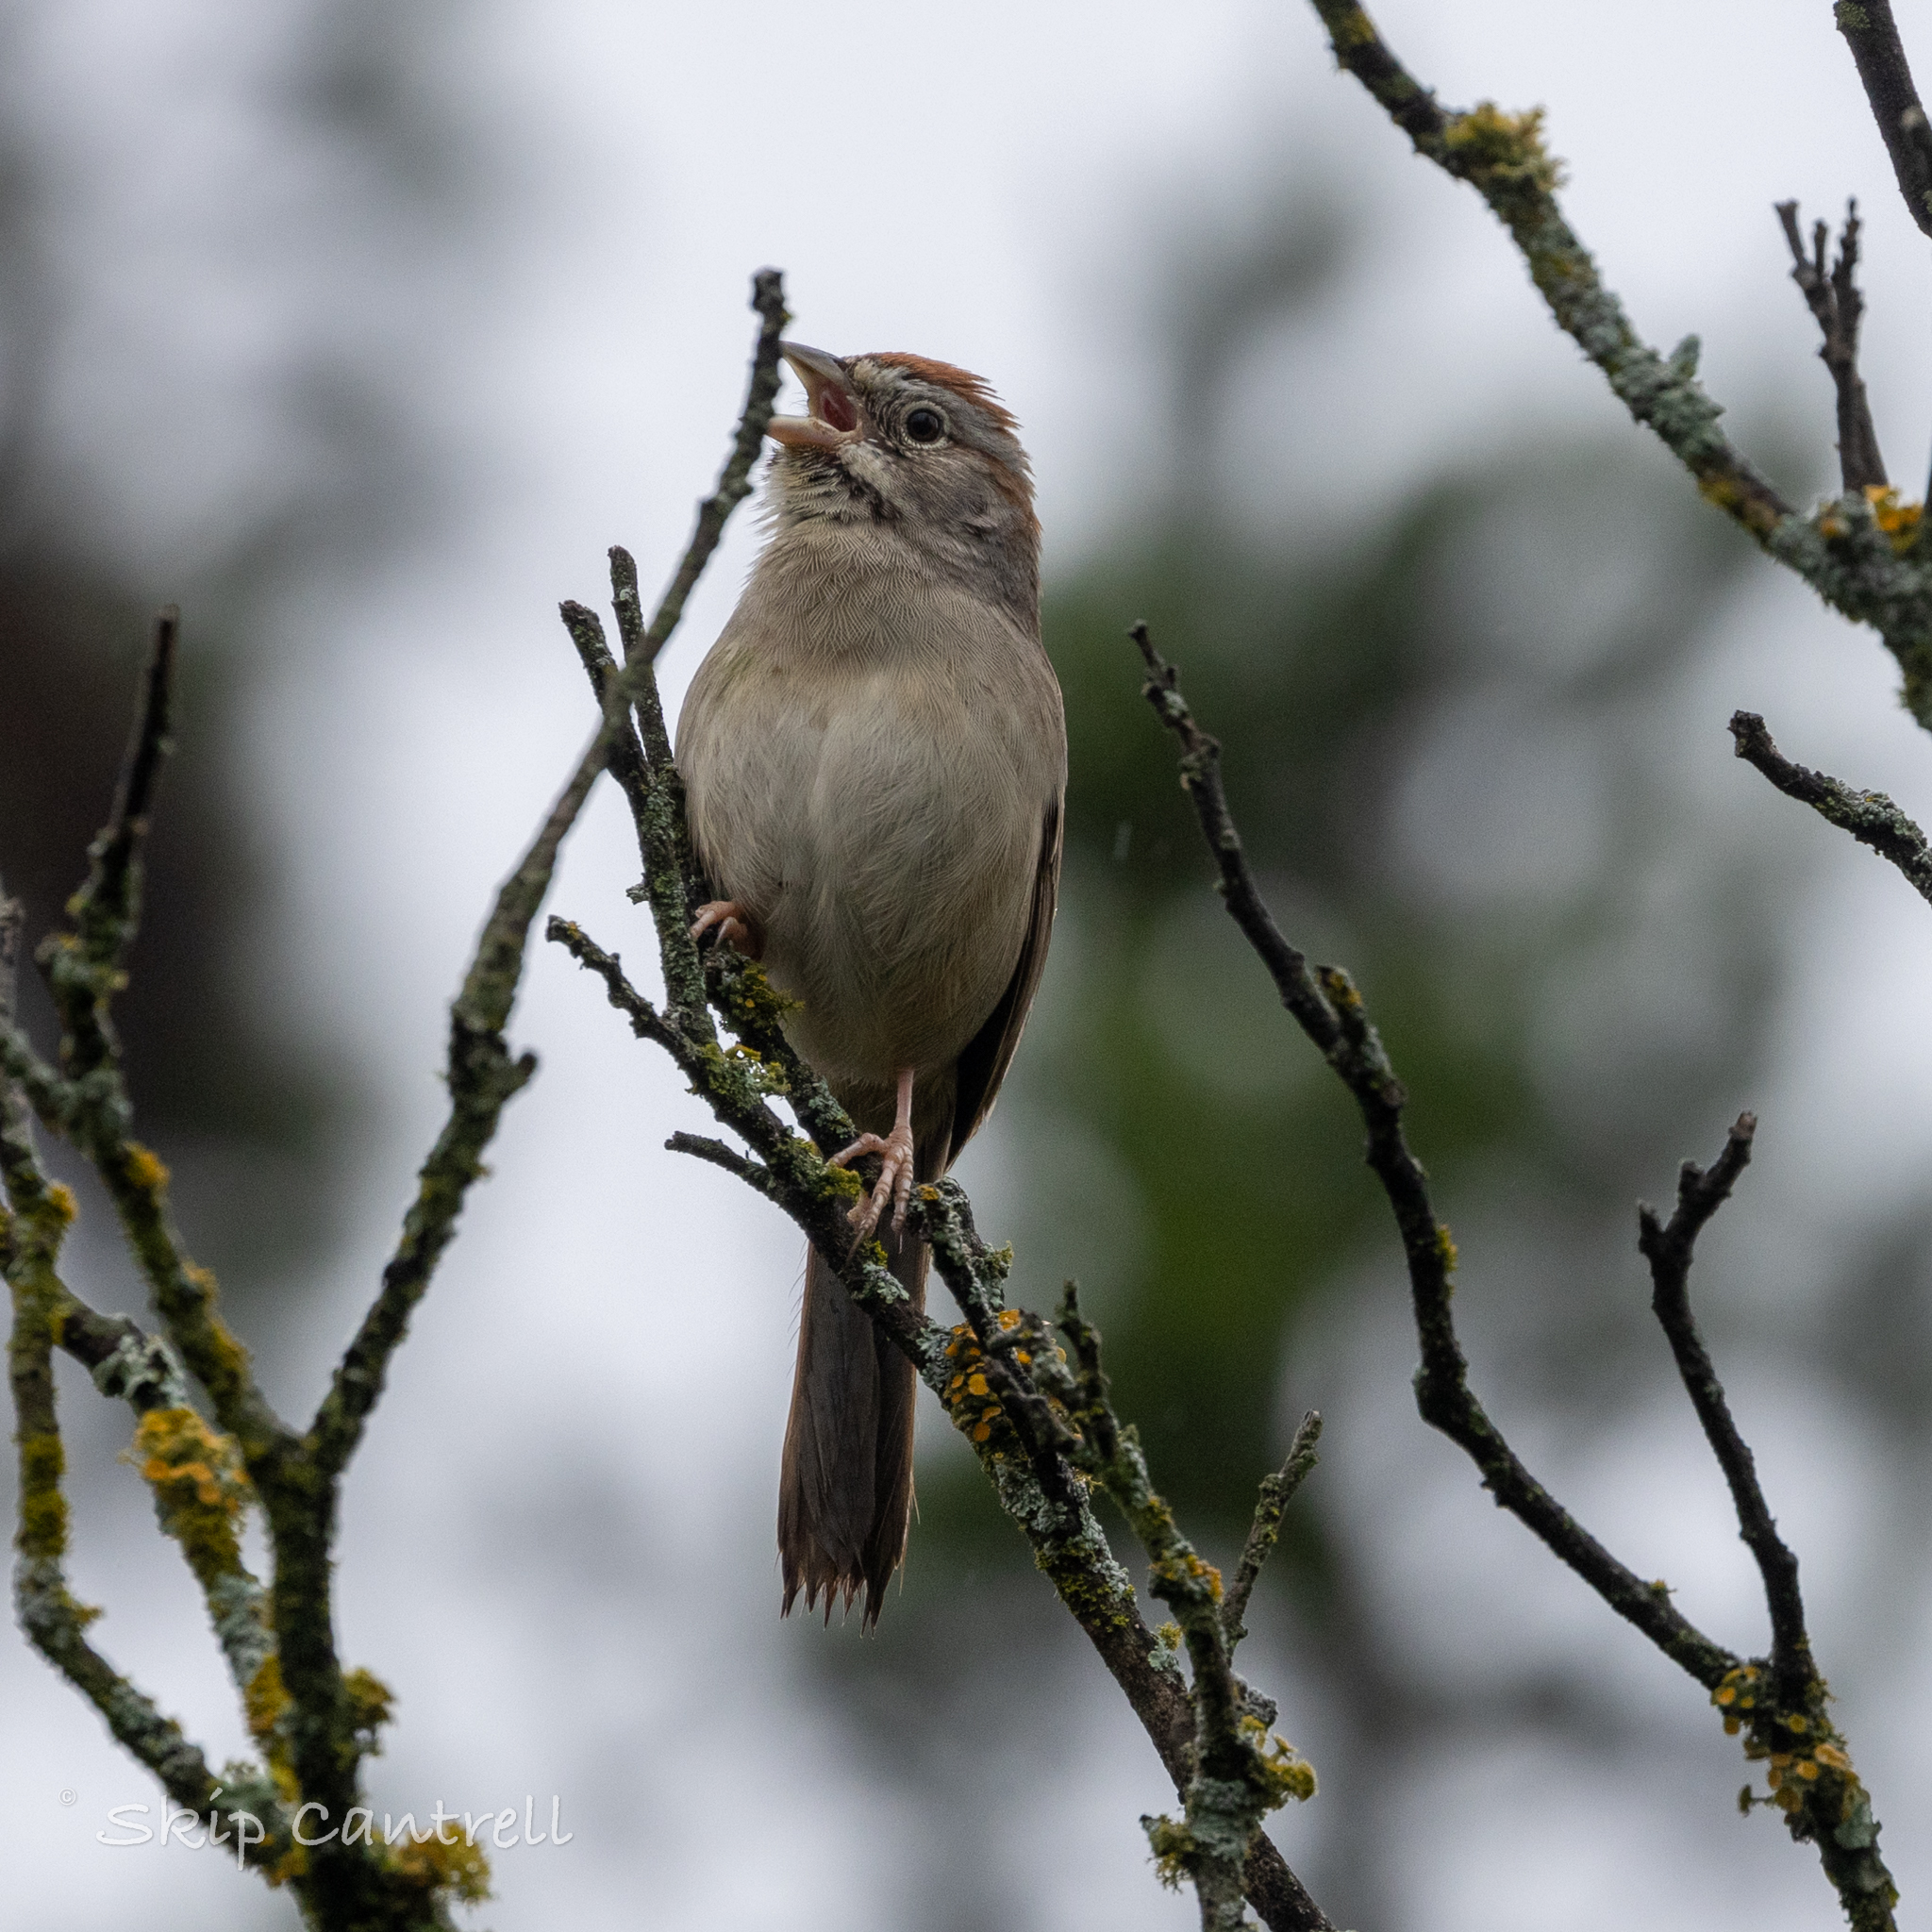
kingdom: Animalia
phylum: Chordata
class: Aves
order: Passeriformes
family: Passerellidae
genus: Aimophila
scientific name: Aimophila ruficeps
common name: Rufous-crowned sparrow
